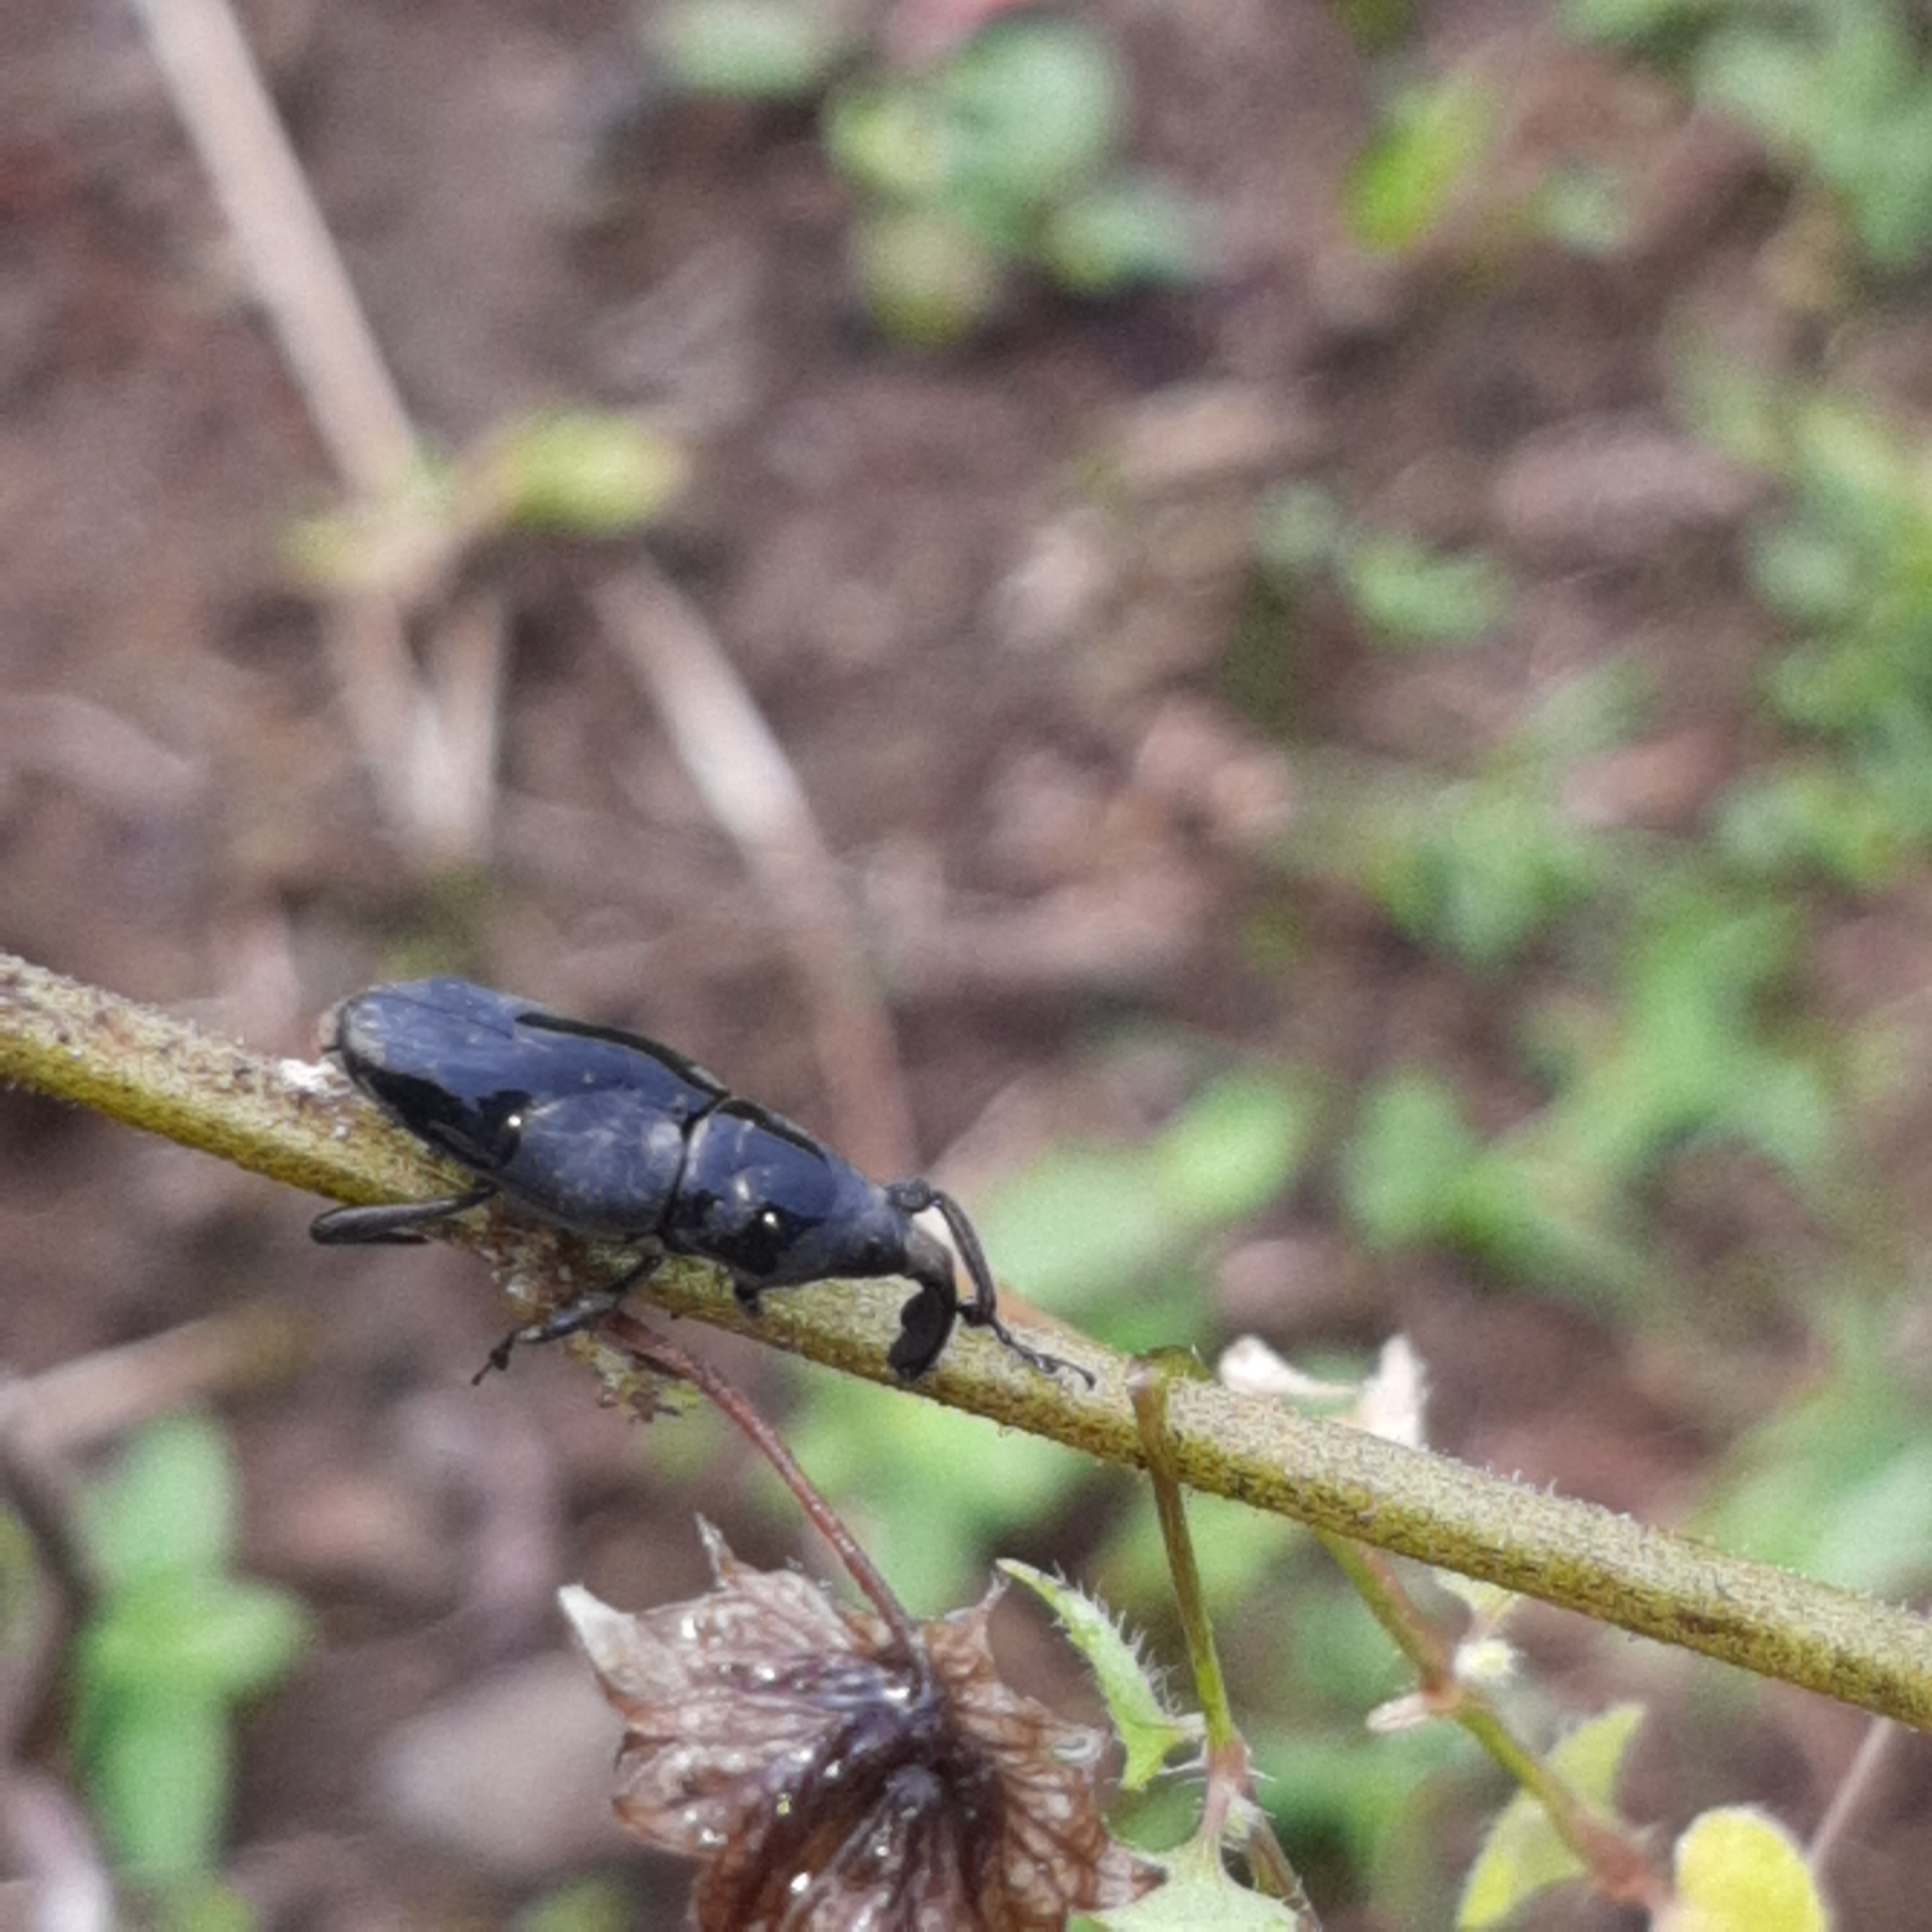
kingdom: Animalia
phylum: Arthropoda
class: Insecta
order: Coleoptera
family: Dryophthoridae
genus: Rhodobaenus
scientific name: Rhodobaenus
